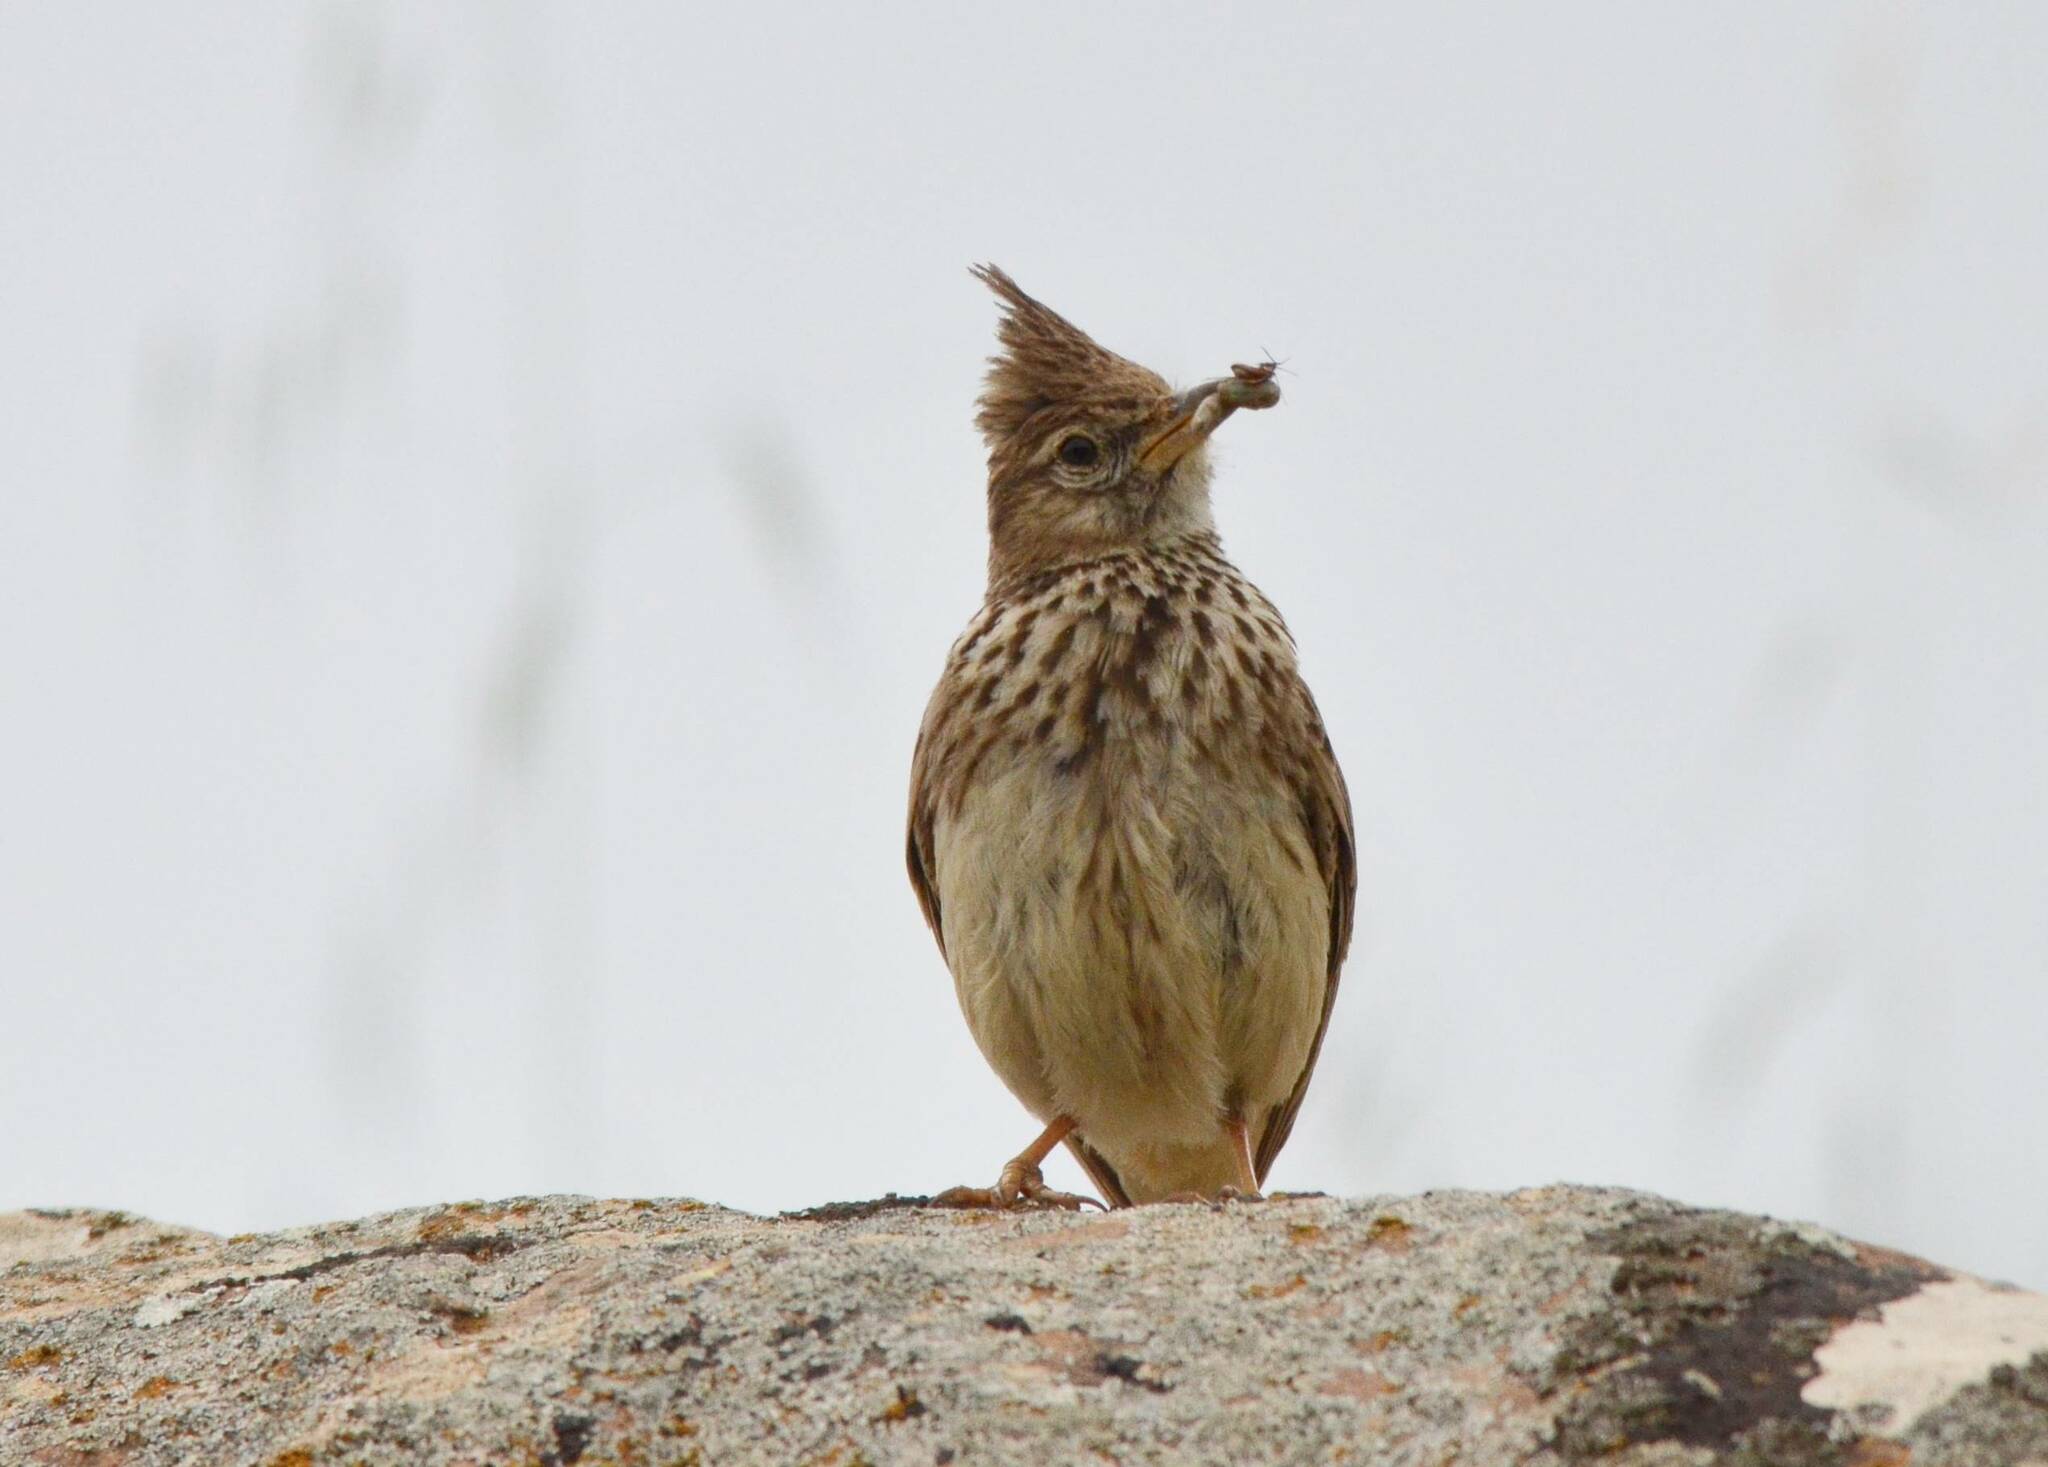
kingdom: Animalia
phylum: Chordata
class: Aves
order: Passeriformes
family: Alaudidae
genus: Galerida
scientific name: Galerida cristata
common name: Crested lark
